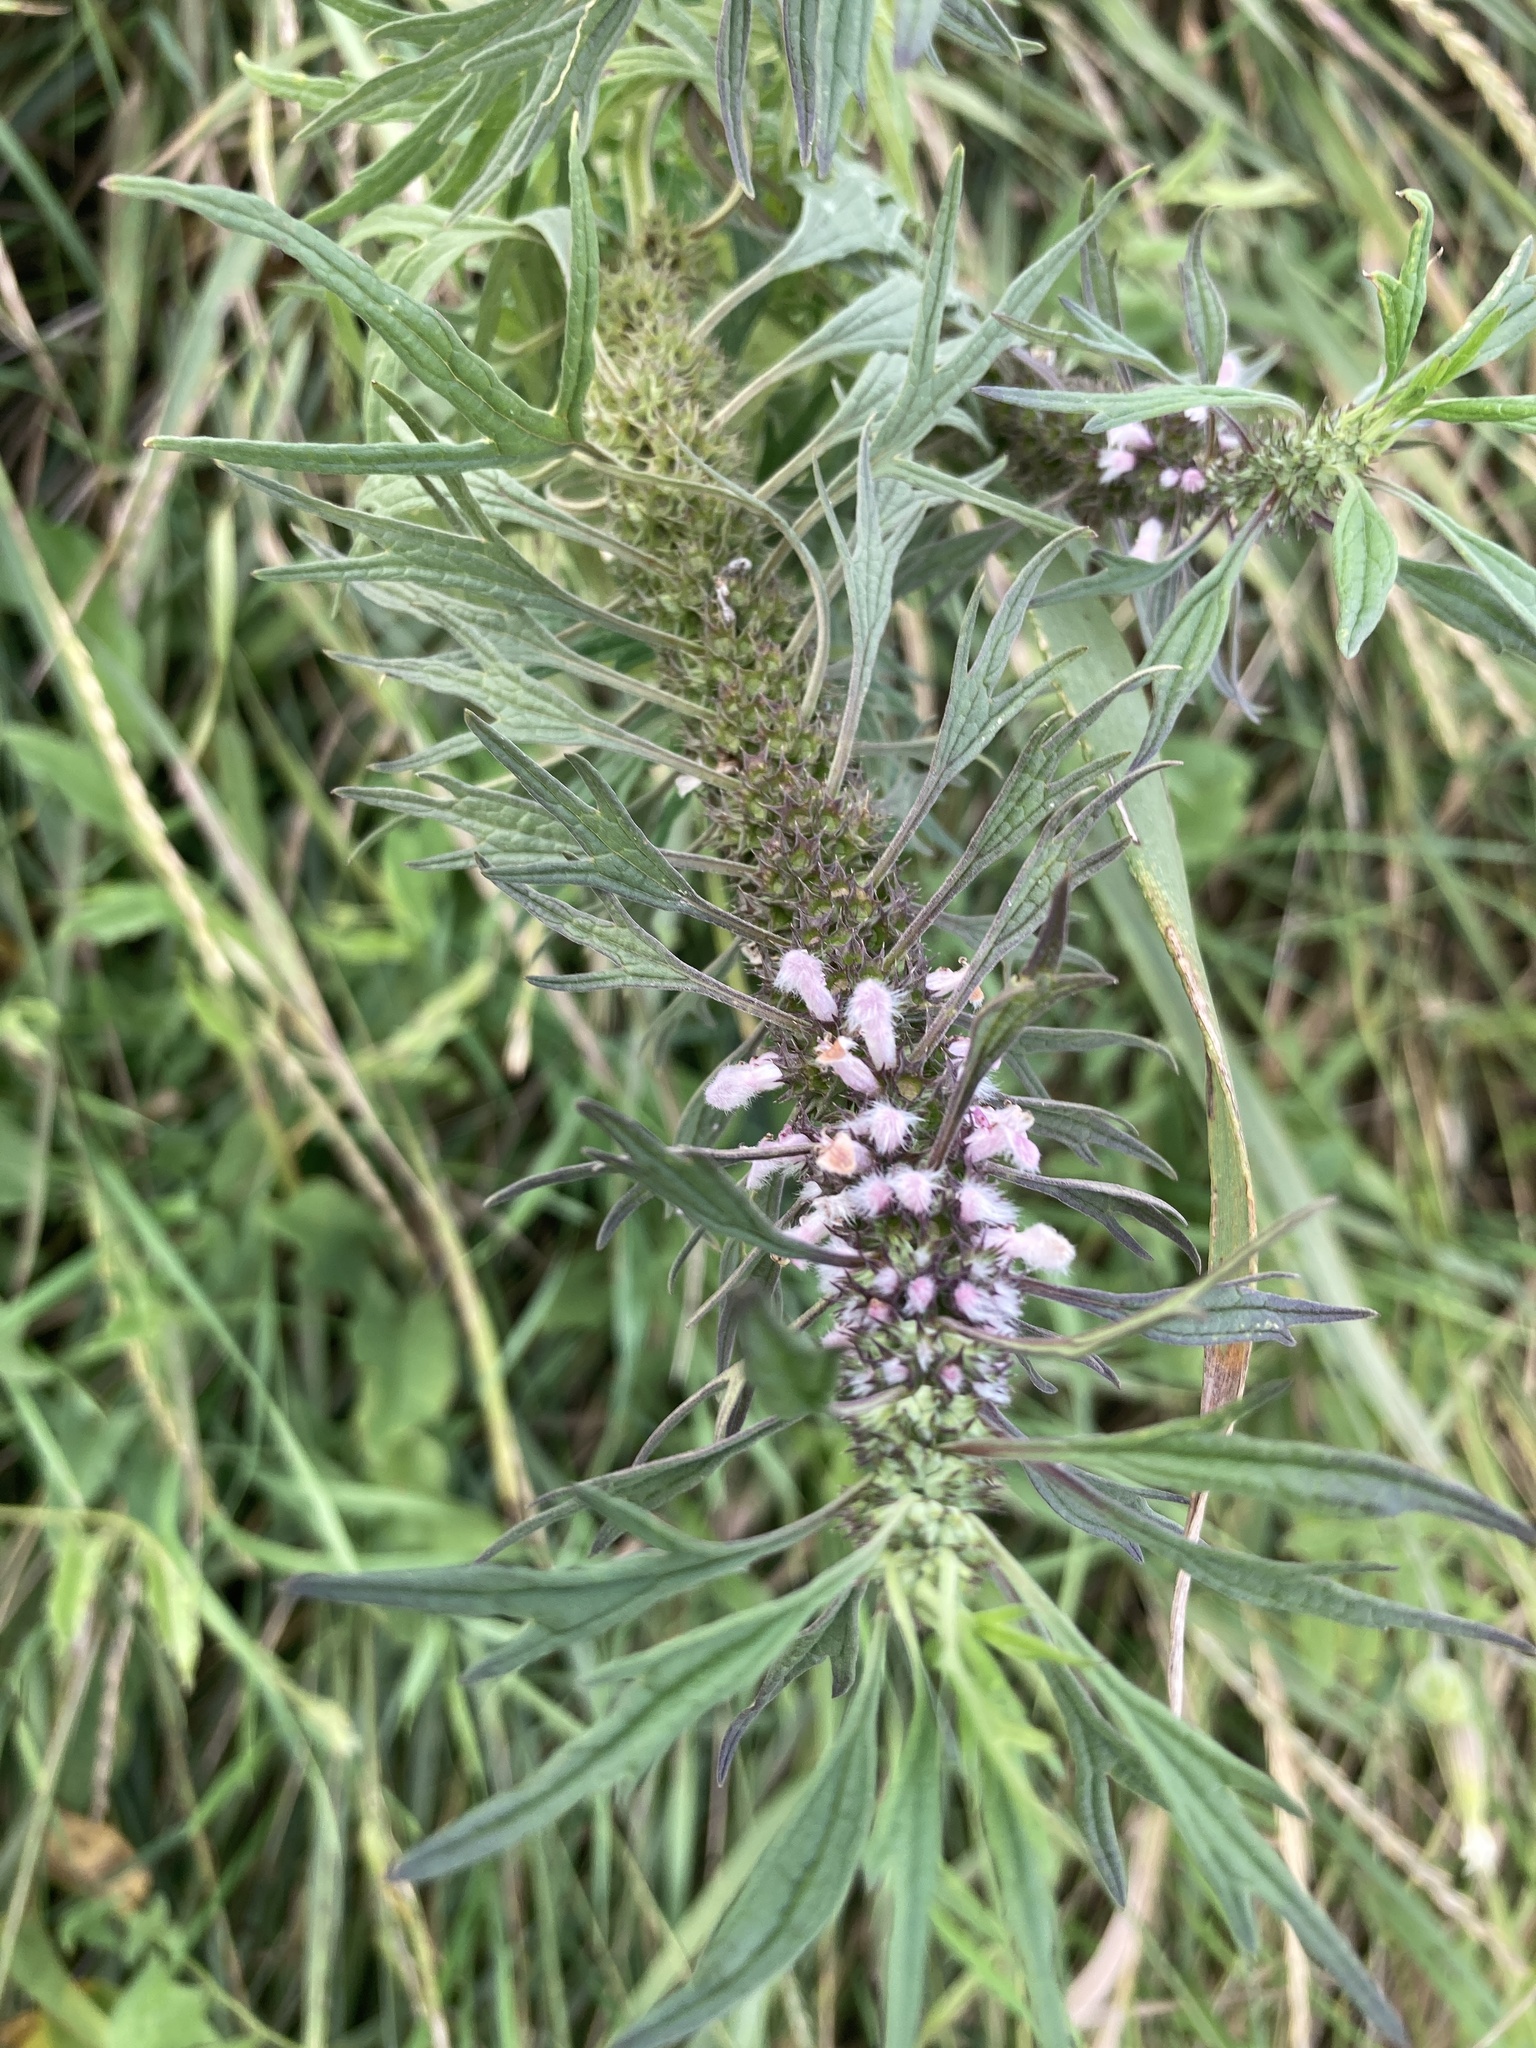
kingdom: Plantae
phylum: Tracheophyta
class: Magnoliopsida
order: Lamiales
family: Lamiaceae
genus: Leonurus
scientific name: Leonurus glaucescens
